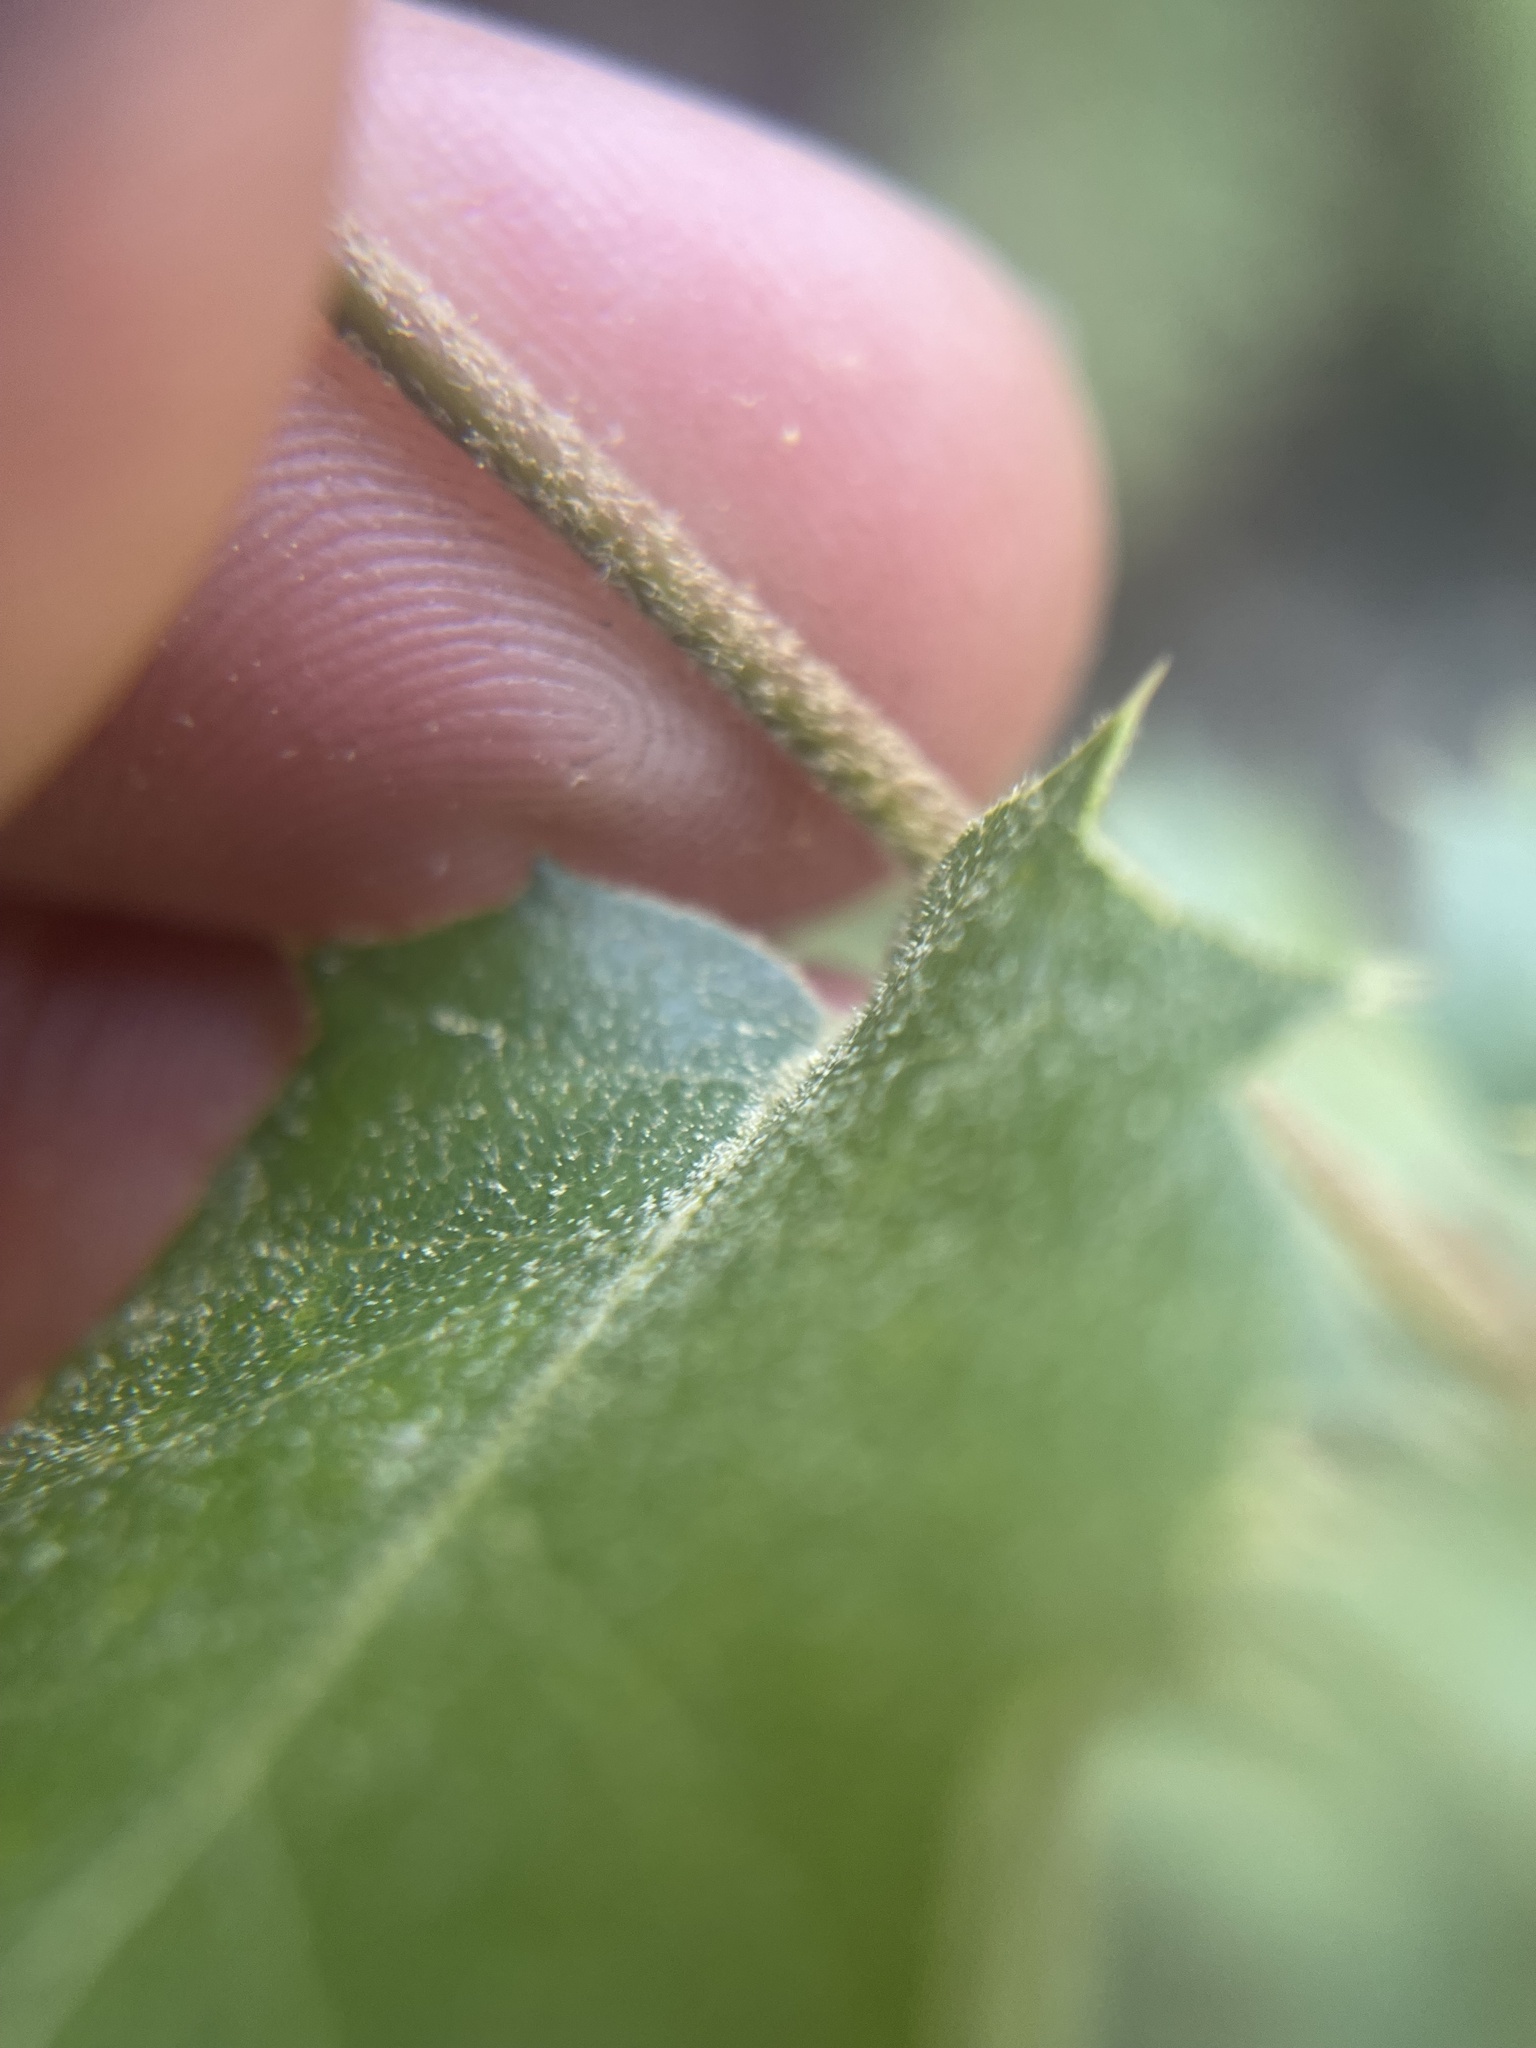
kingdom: Plantae
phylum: Tracheophyta
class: Magnoliopsida
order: Fagales
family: Fagaceae
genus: Quercus
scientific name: Quercus chrysolepis
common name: Canyon live oak
